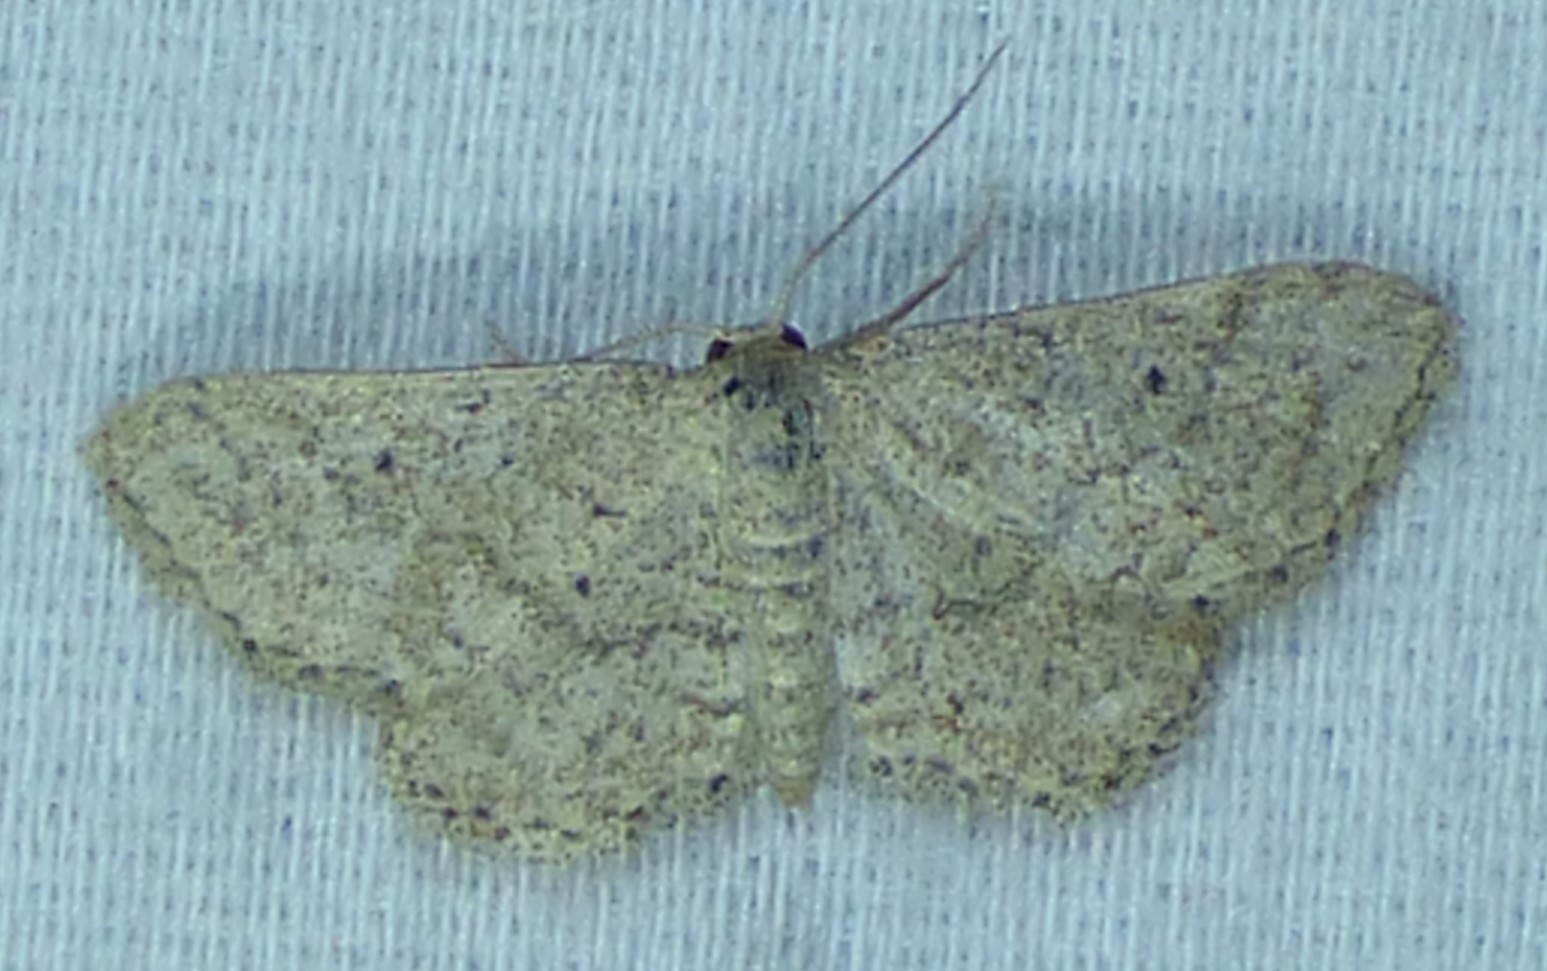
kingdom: Animalia
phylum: Arthropoda
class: Insecta
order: Lepidoptera
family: Geometridae
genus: Lobocleta
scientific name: Lobocleta ossularia
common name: Drab brown wave
